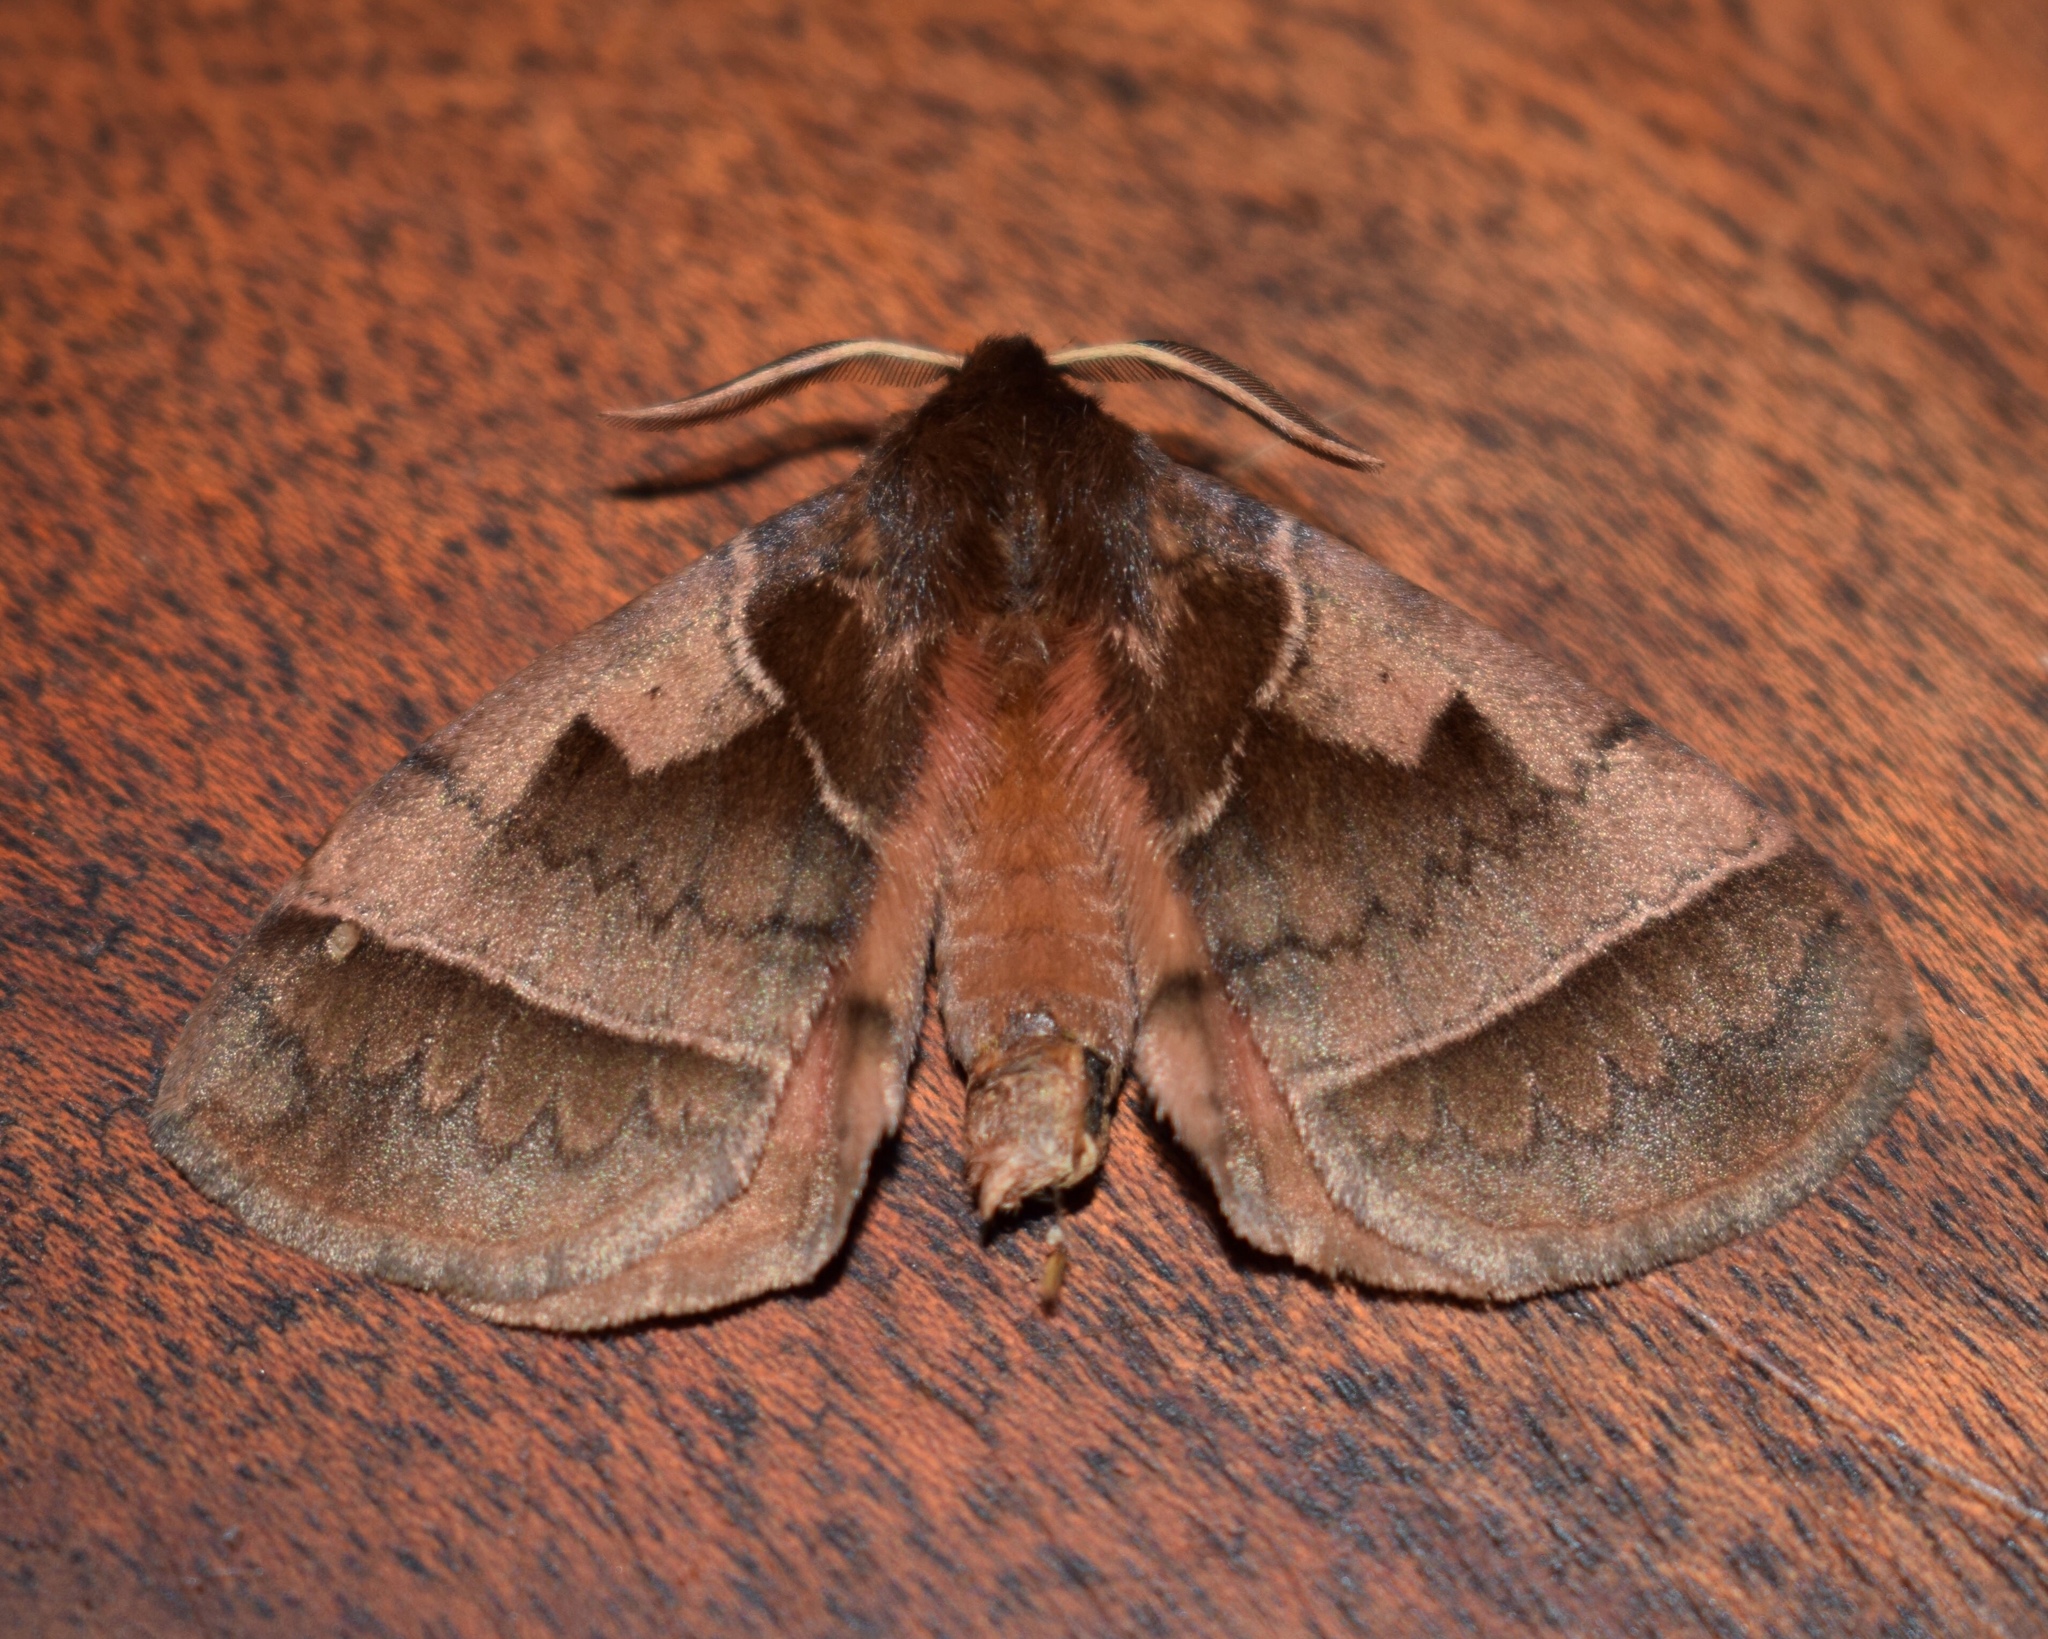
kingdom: Animalia
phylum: Arthropoda
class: Insecta
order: Lepidoptera
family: Eupterotidae
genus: Poloma
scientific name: Poloma angulata
